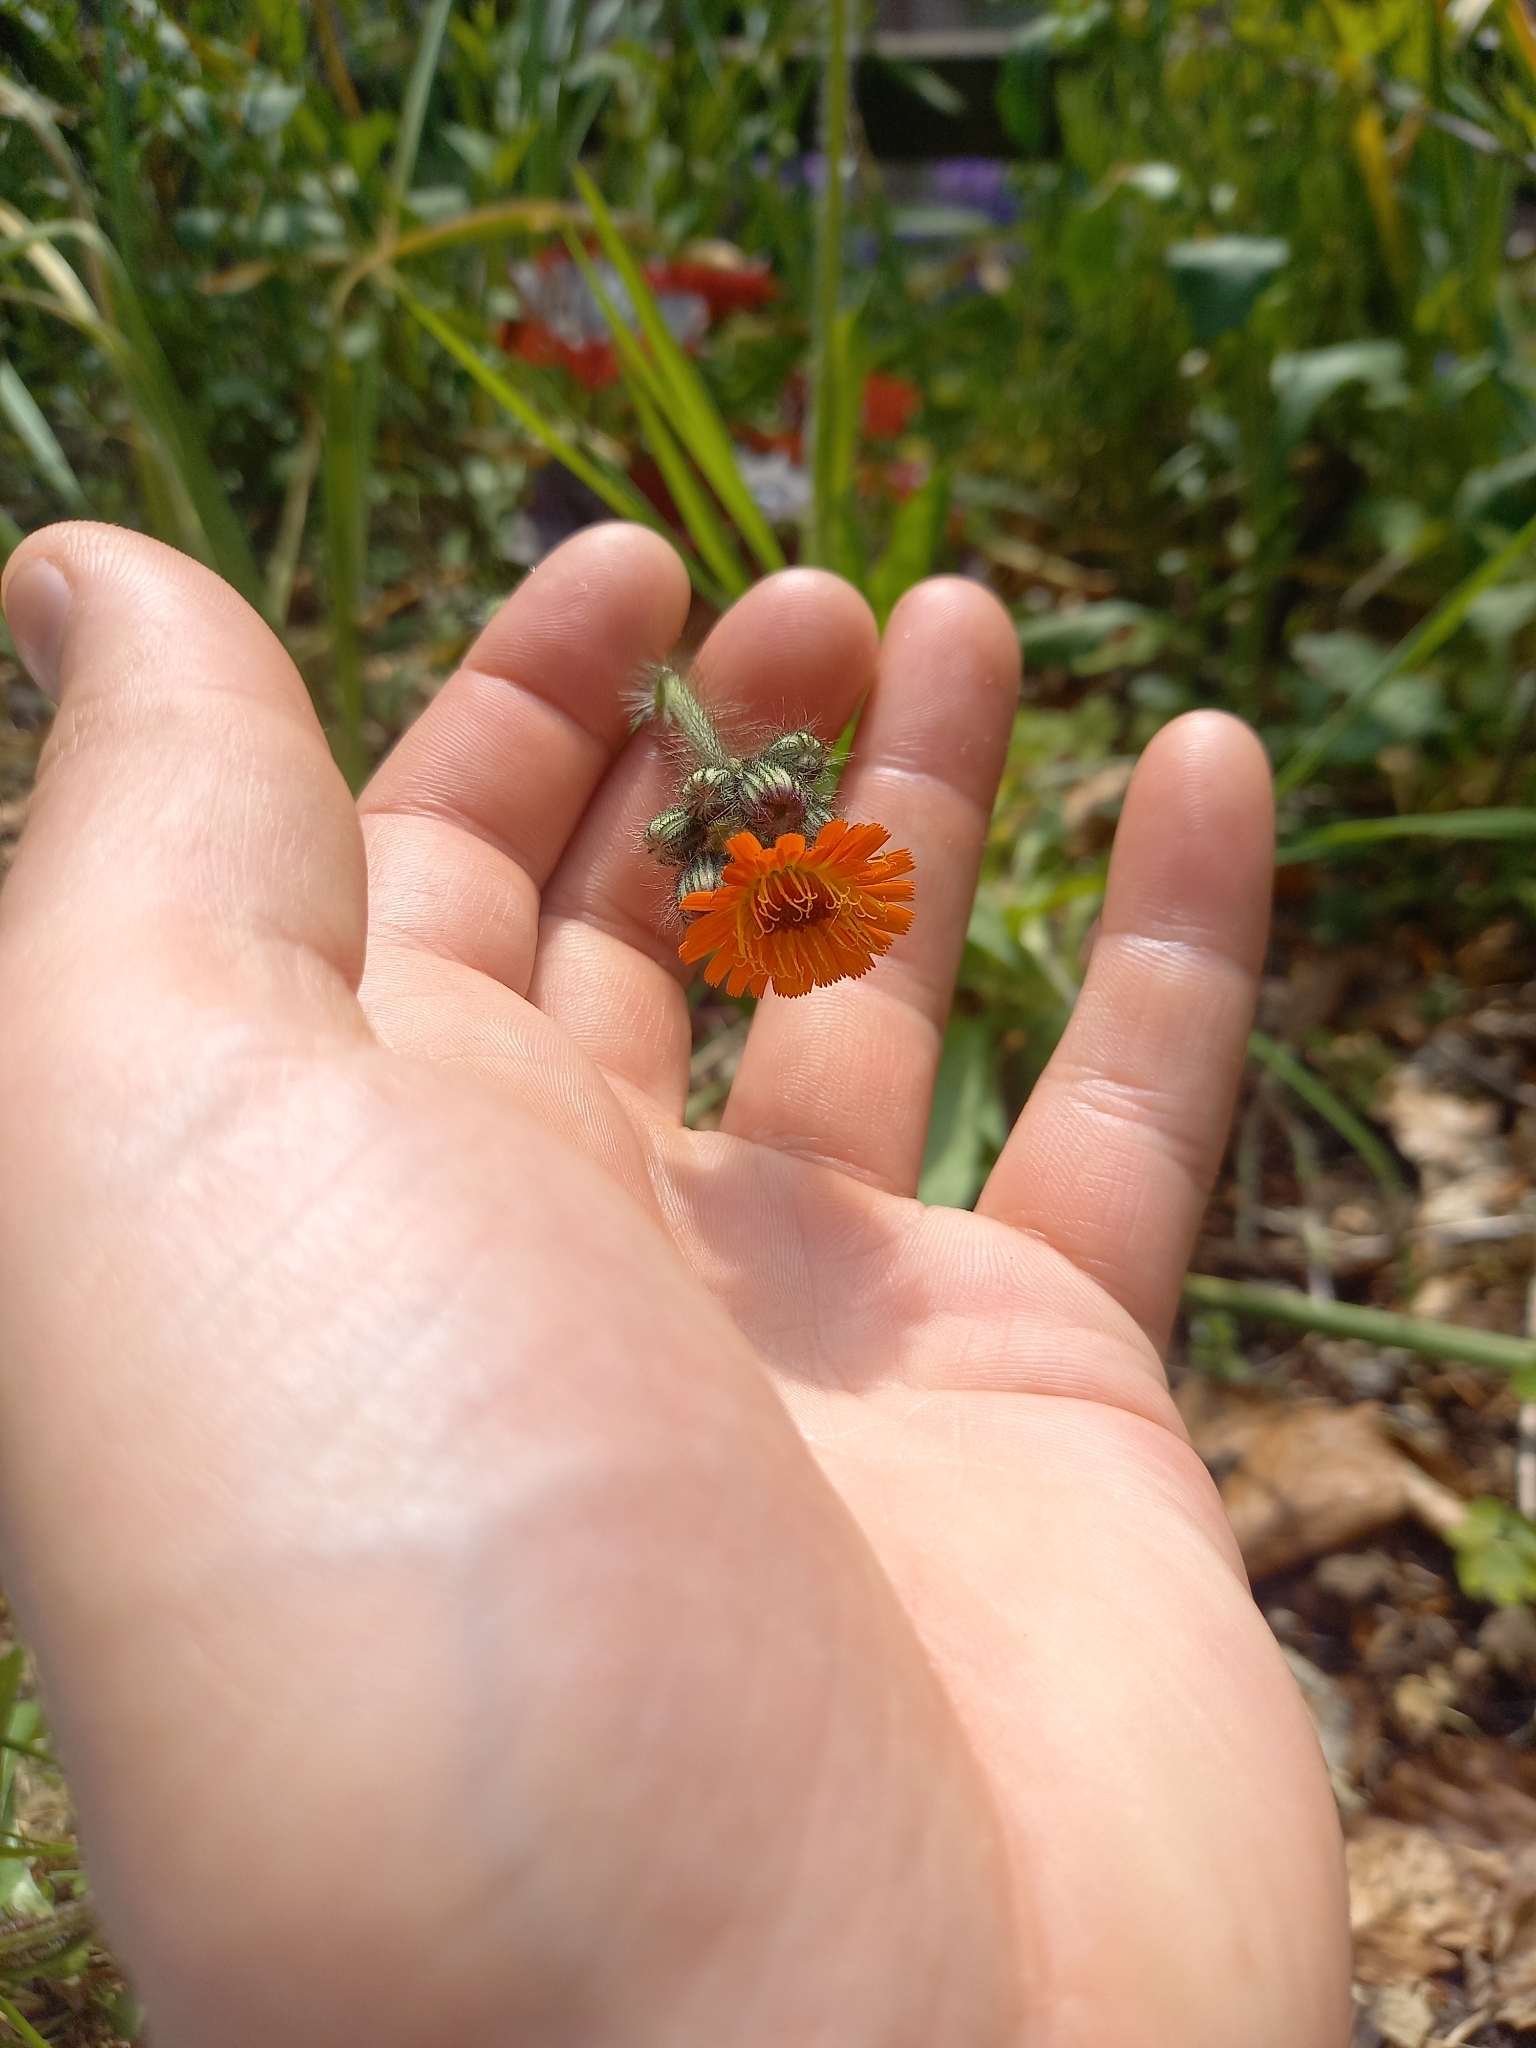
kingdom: Plantae
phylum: Tracheophyta
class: Magnoliopsida
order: Asterales
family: Asteraceae
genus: Pilosella
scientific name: Pilosella aurantiaca
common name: Fox-and-cubs
